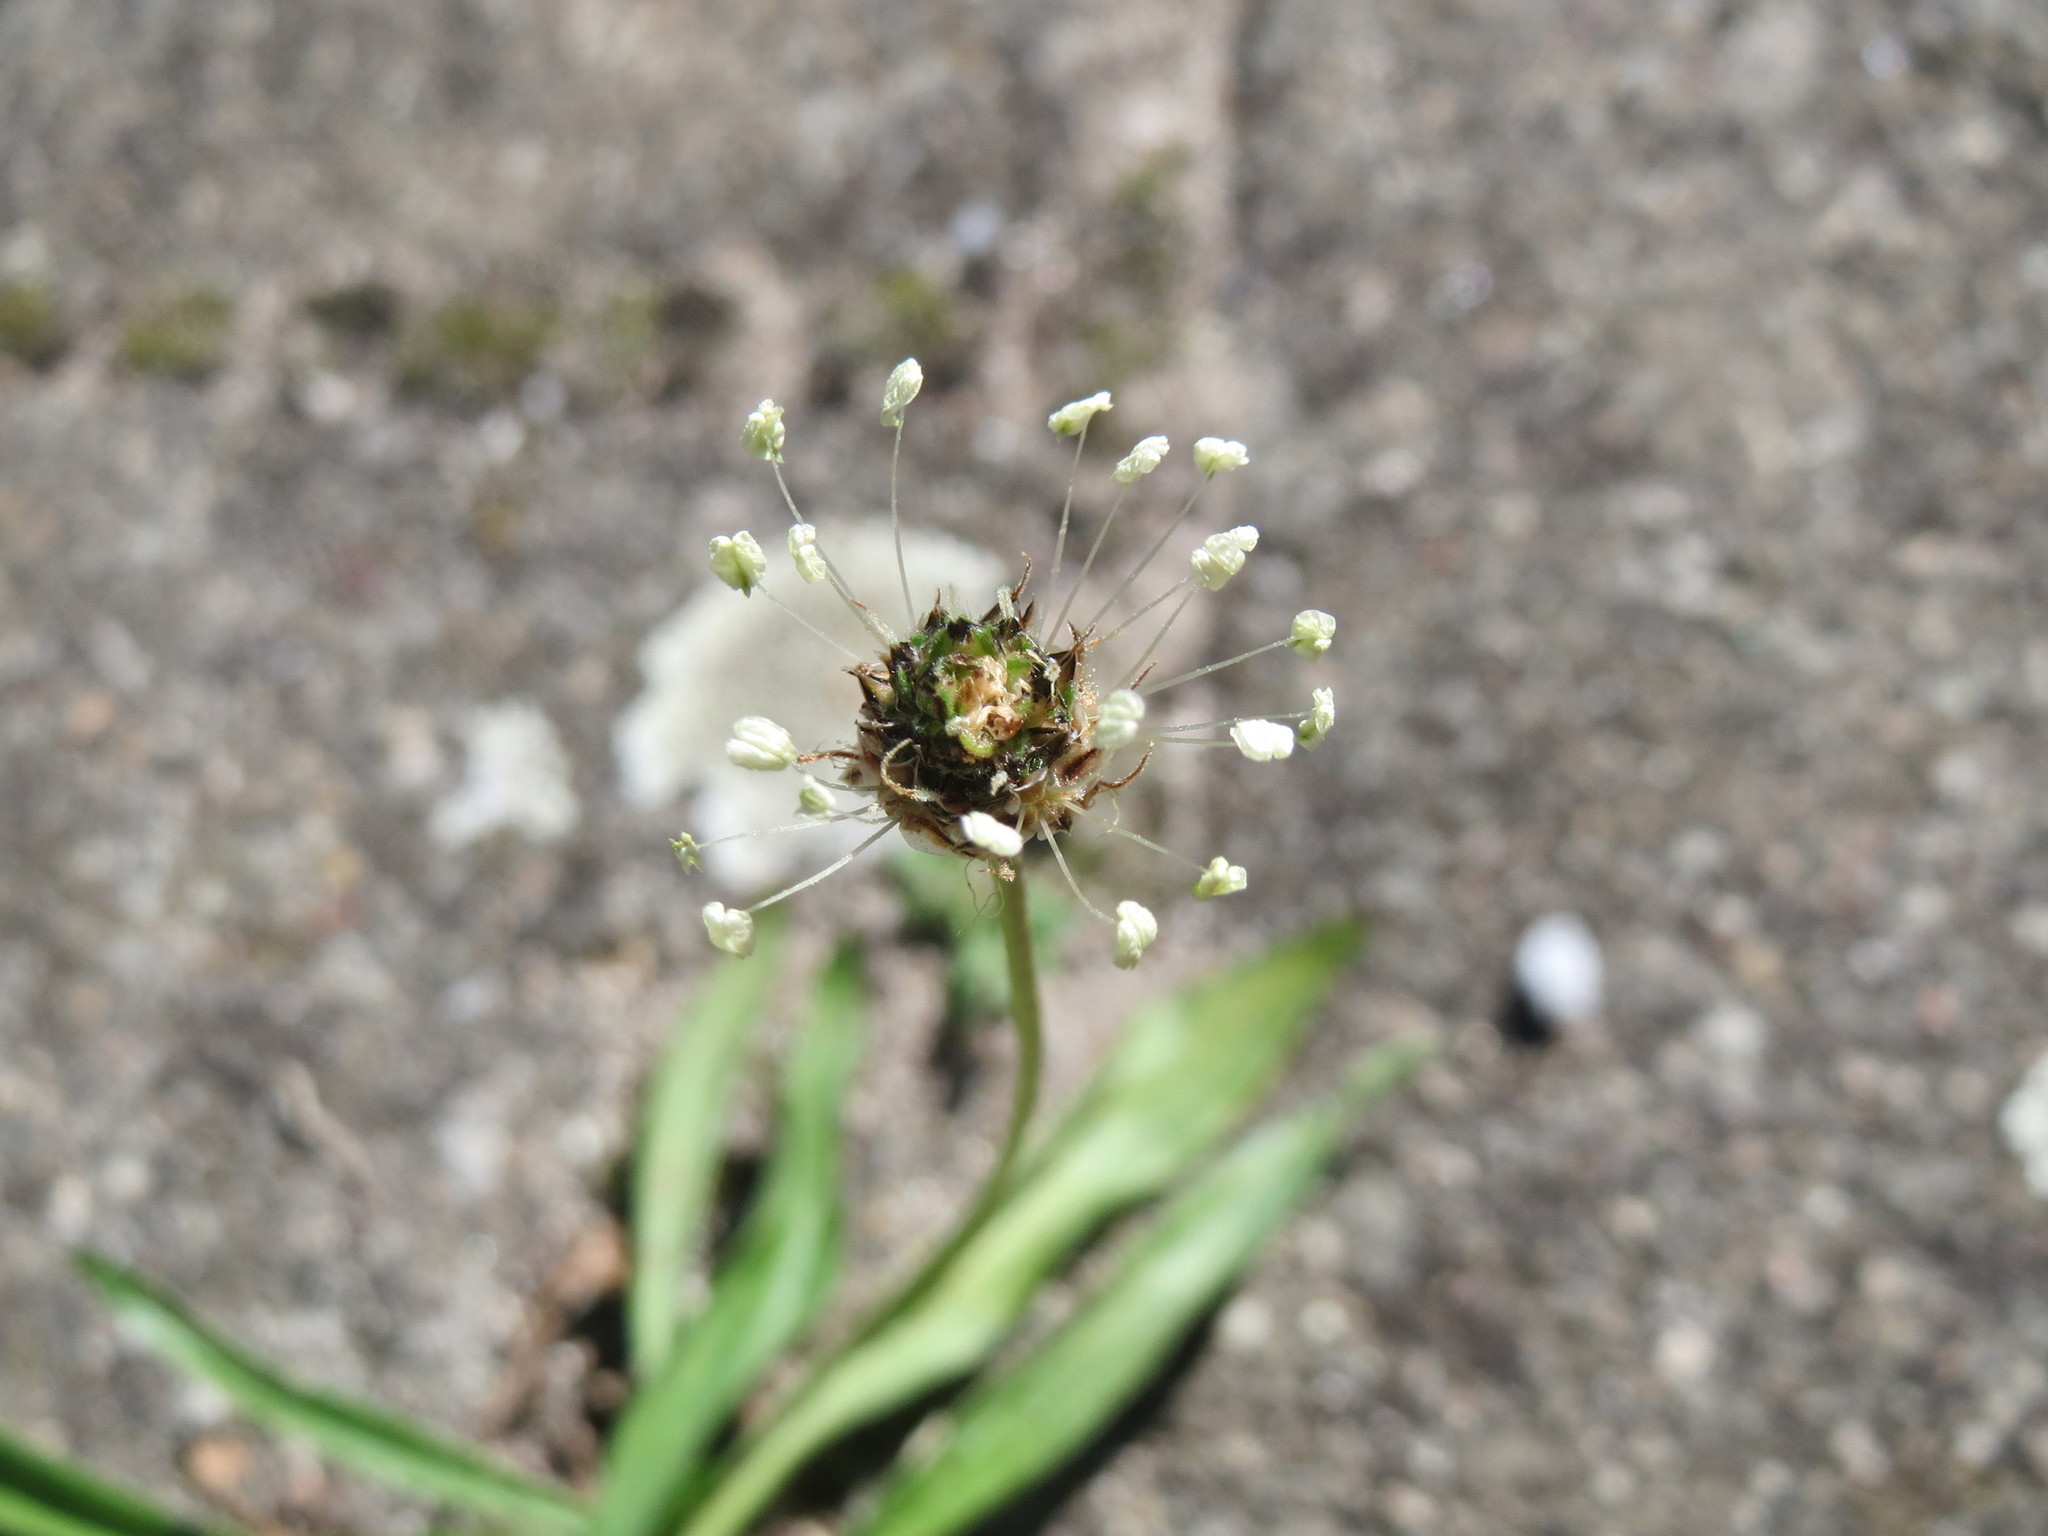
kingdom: Plantae
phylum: Tracheophyta
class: Magnoliopsida
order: Lamiales
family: Plantaginaceae
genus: Plantago
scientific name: Plantago lanceolata
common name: Ribwort plantain
